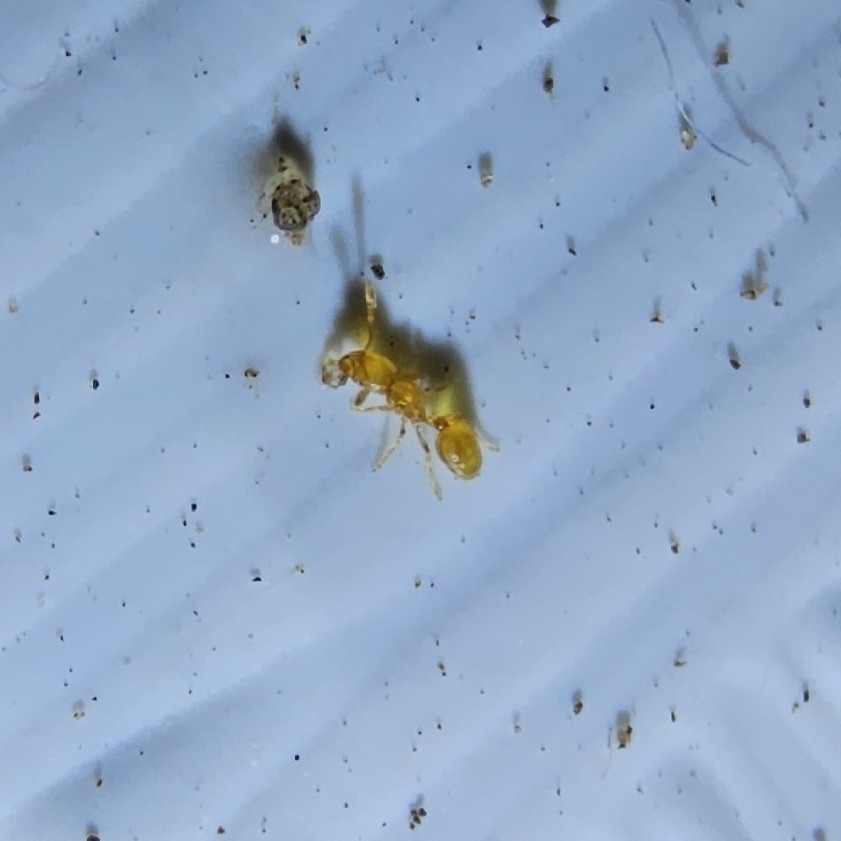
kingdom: Animalia
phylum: Arthropoda
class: Insecta
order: Hymenoptera
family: Formicidae
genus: Solenopsis
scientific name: Solenopsis fugax
